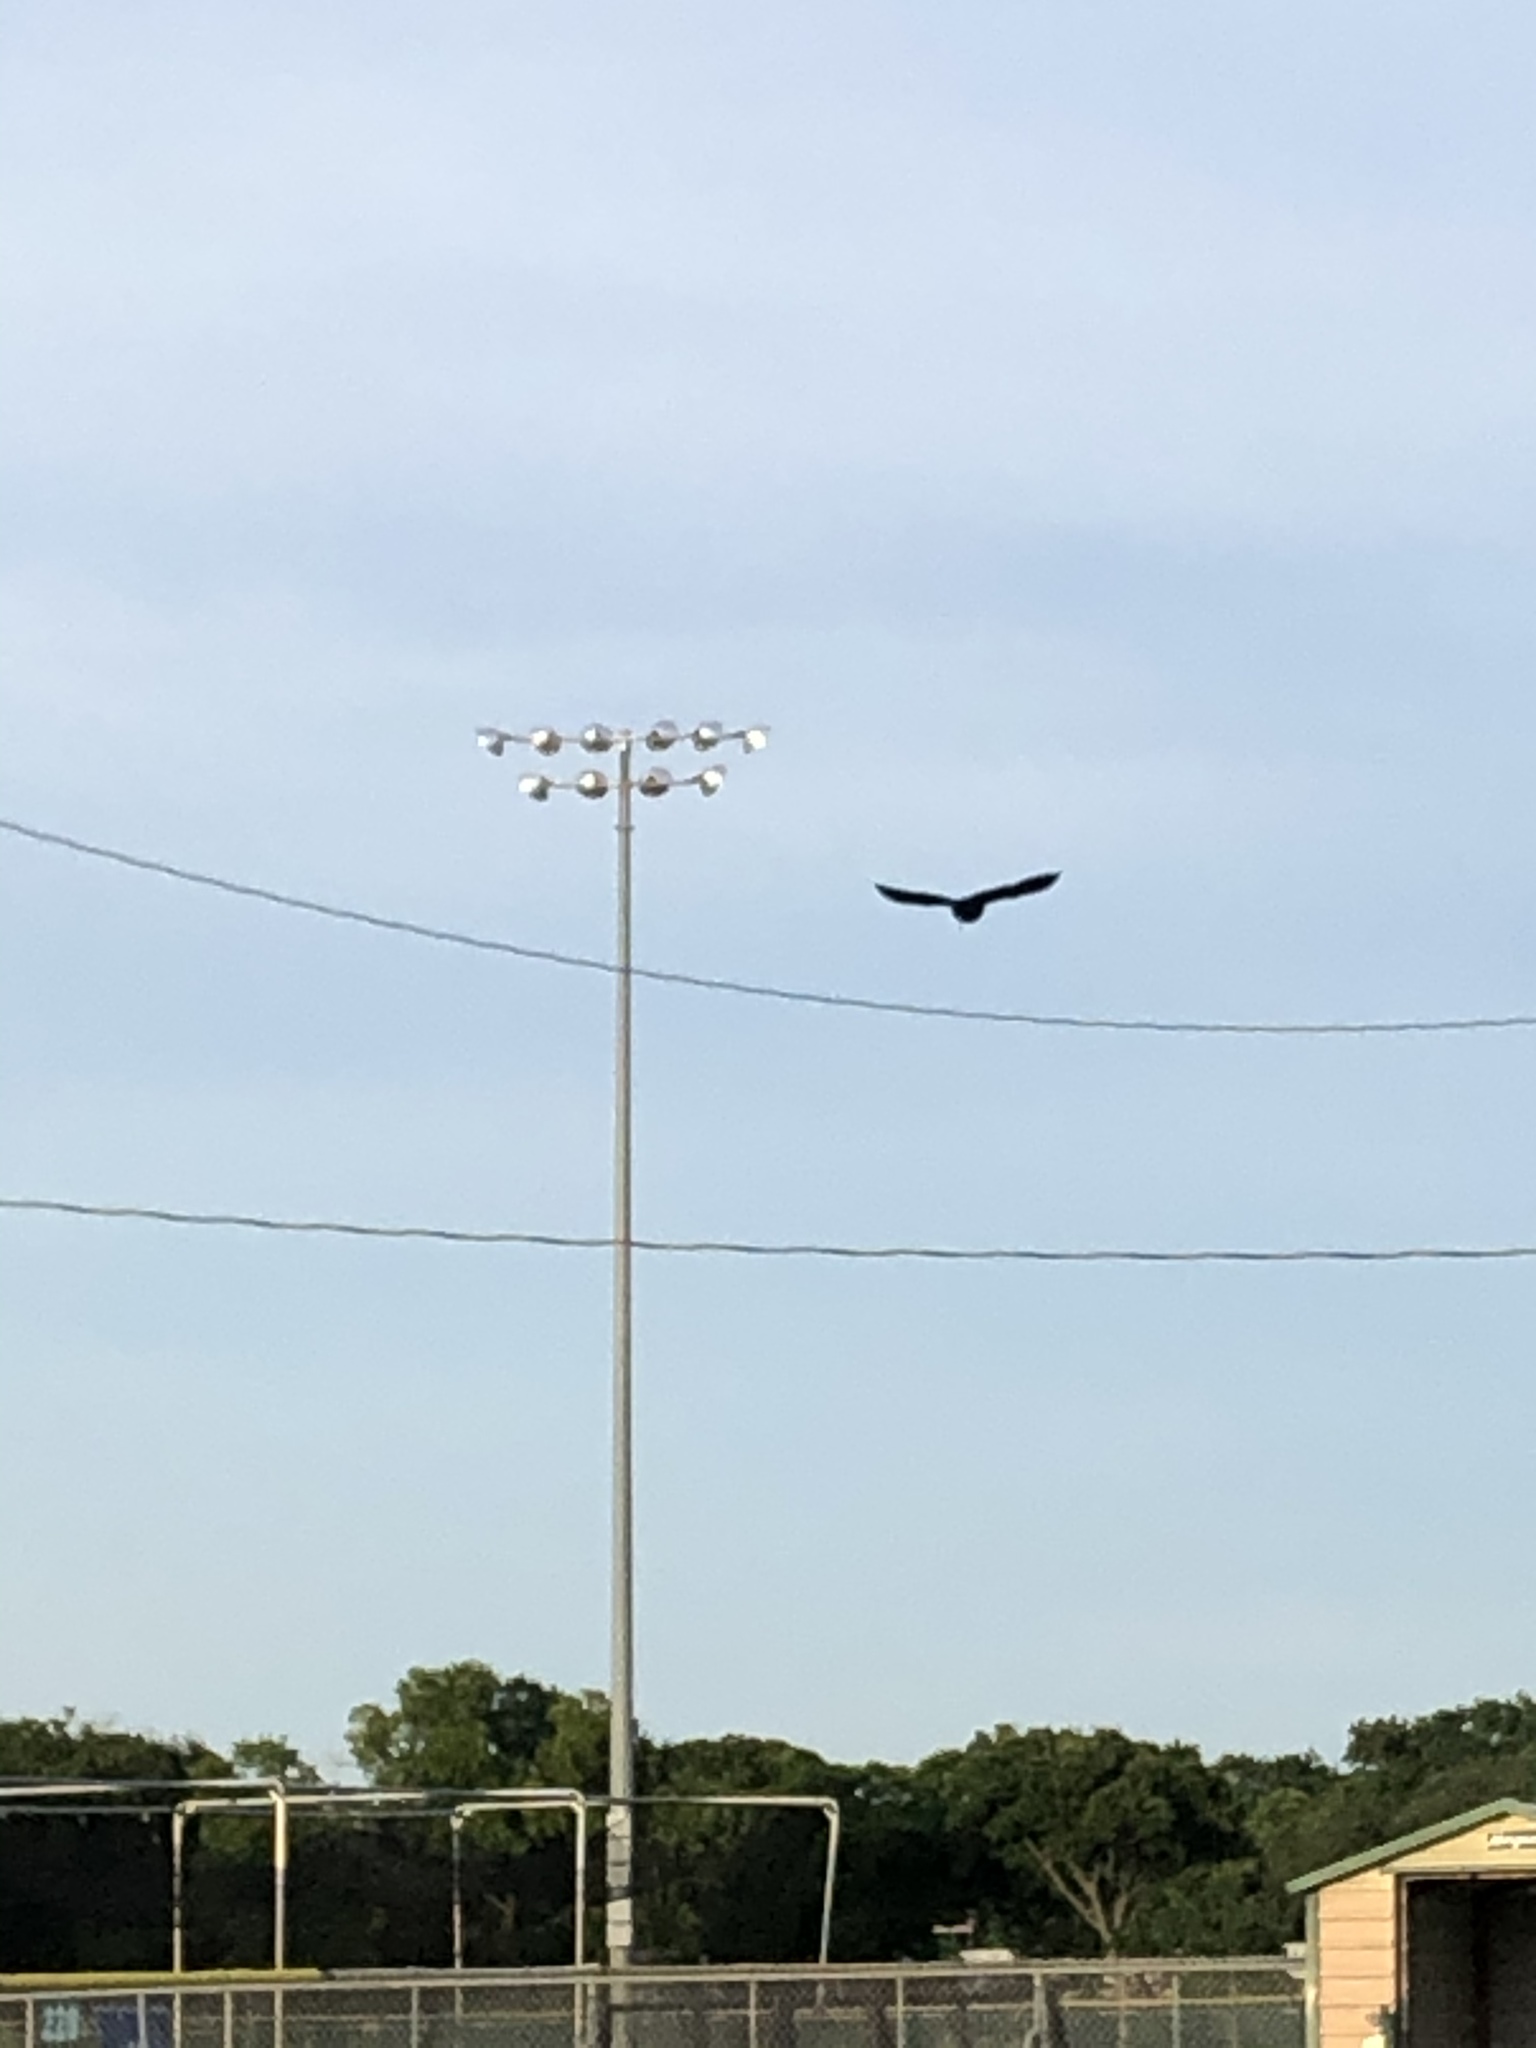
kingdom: Animalia
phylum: Chordata
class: Aves
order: Passeriformes
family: Icteridae
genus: Molothrus
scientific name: Molothrus aeneus
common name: Bronzed cowbird
